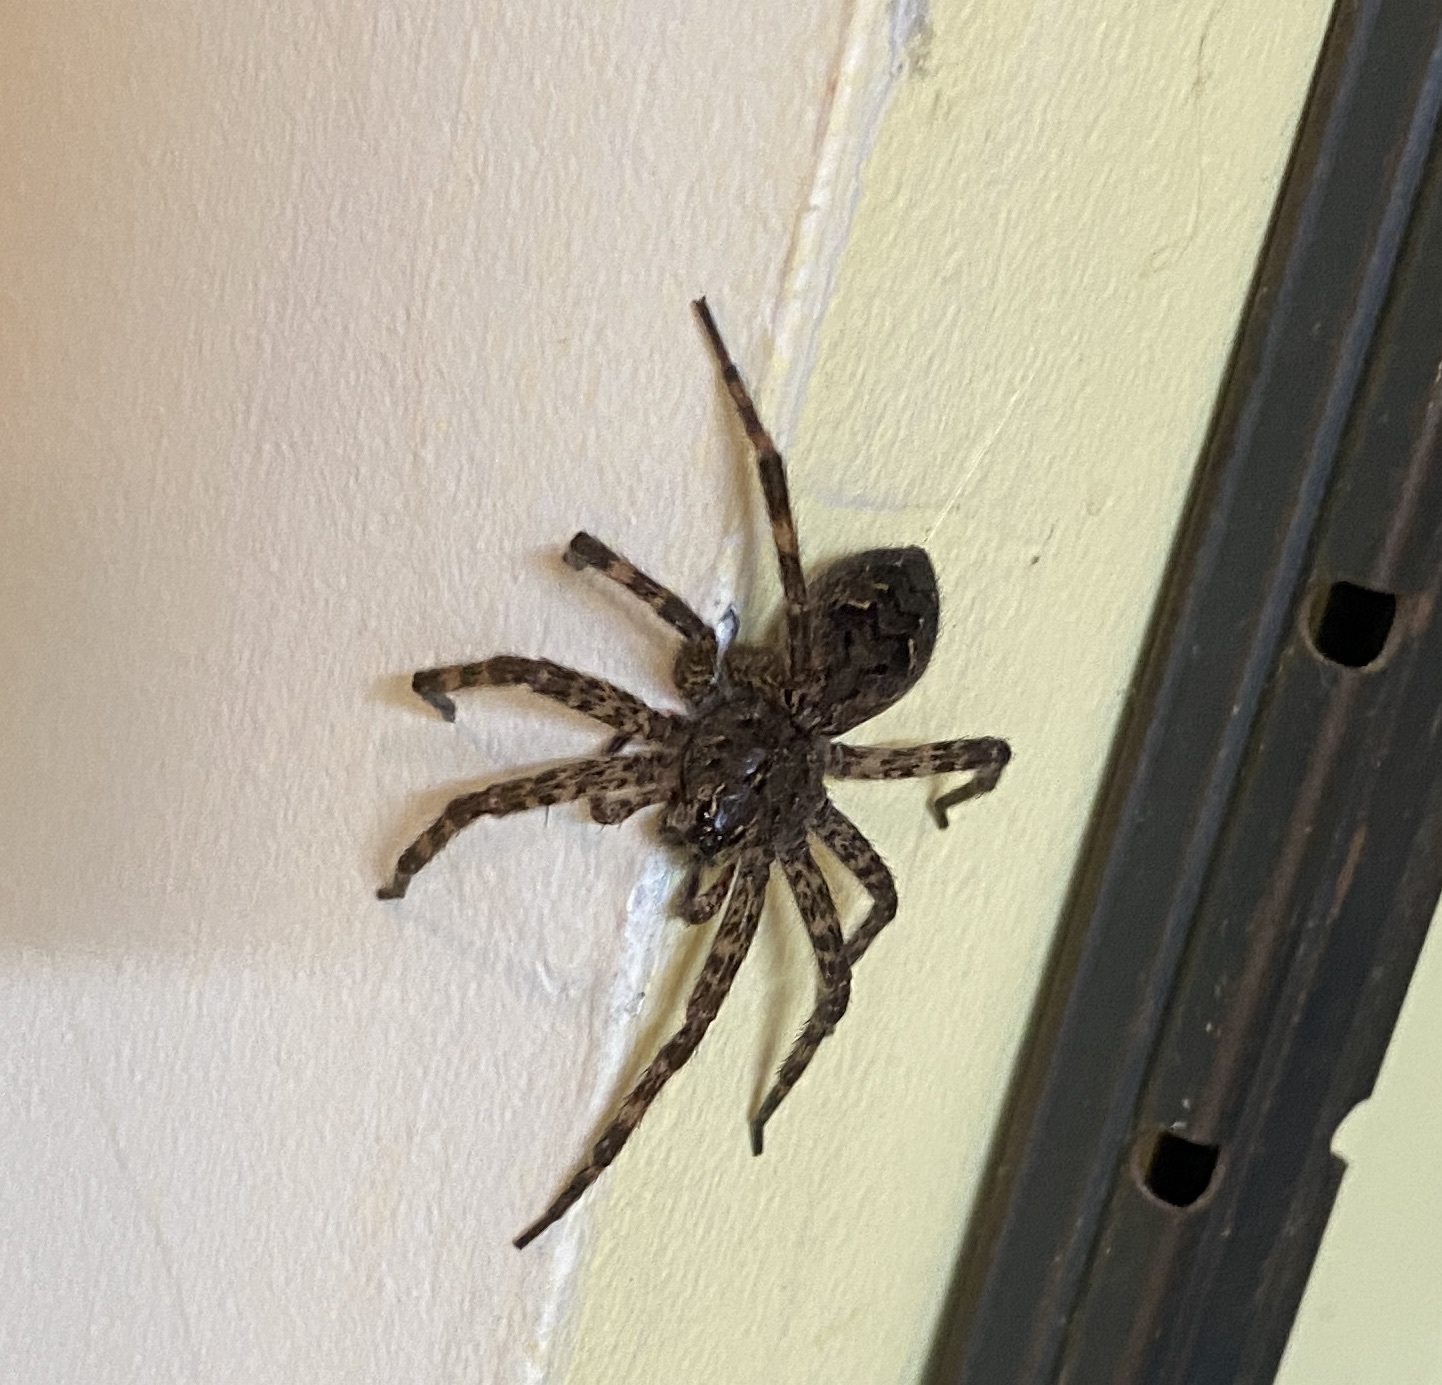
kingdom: Animalia
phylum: Arthropoda
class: Arachnida
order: Araneae
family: Pisauridae
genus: Dolomedes
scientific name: Dolomedes tenebrosus
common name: Dark fishing spider
